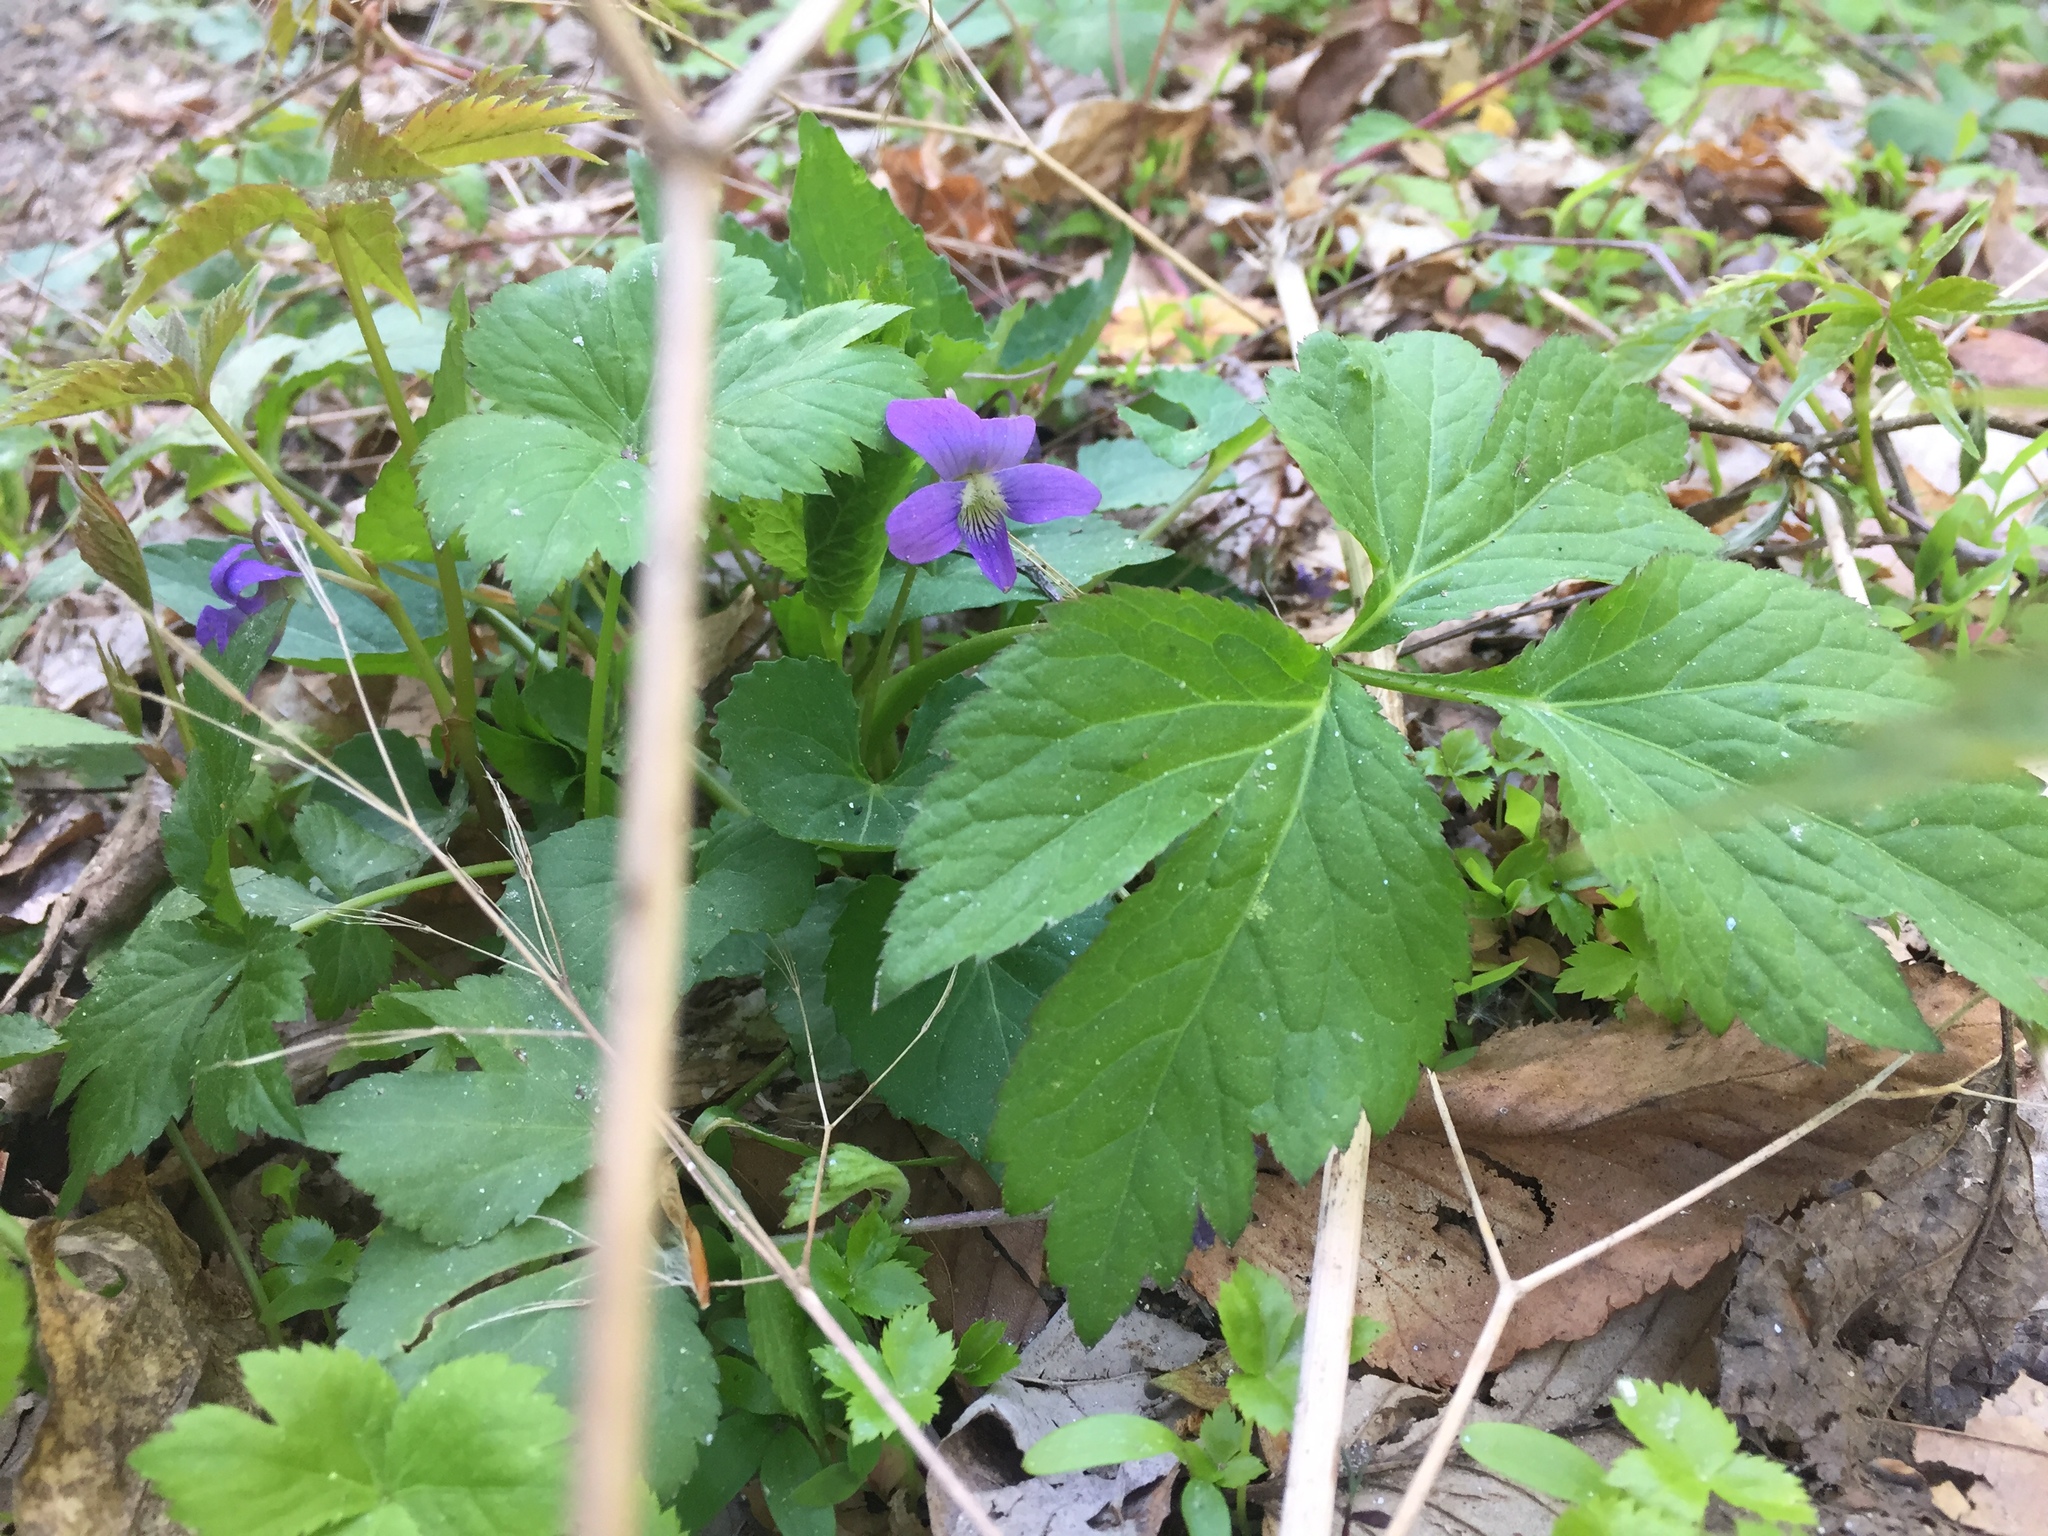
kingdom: Plantae
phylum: Tracheophyta
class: Magnoliopsida
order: Malpighiales
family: Violaceae
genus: Viola
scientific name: Viola sororia
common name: Dooryard violet
